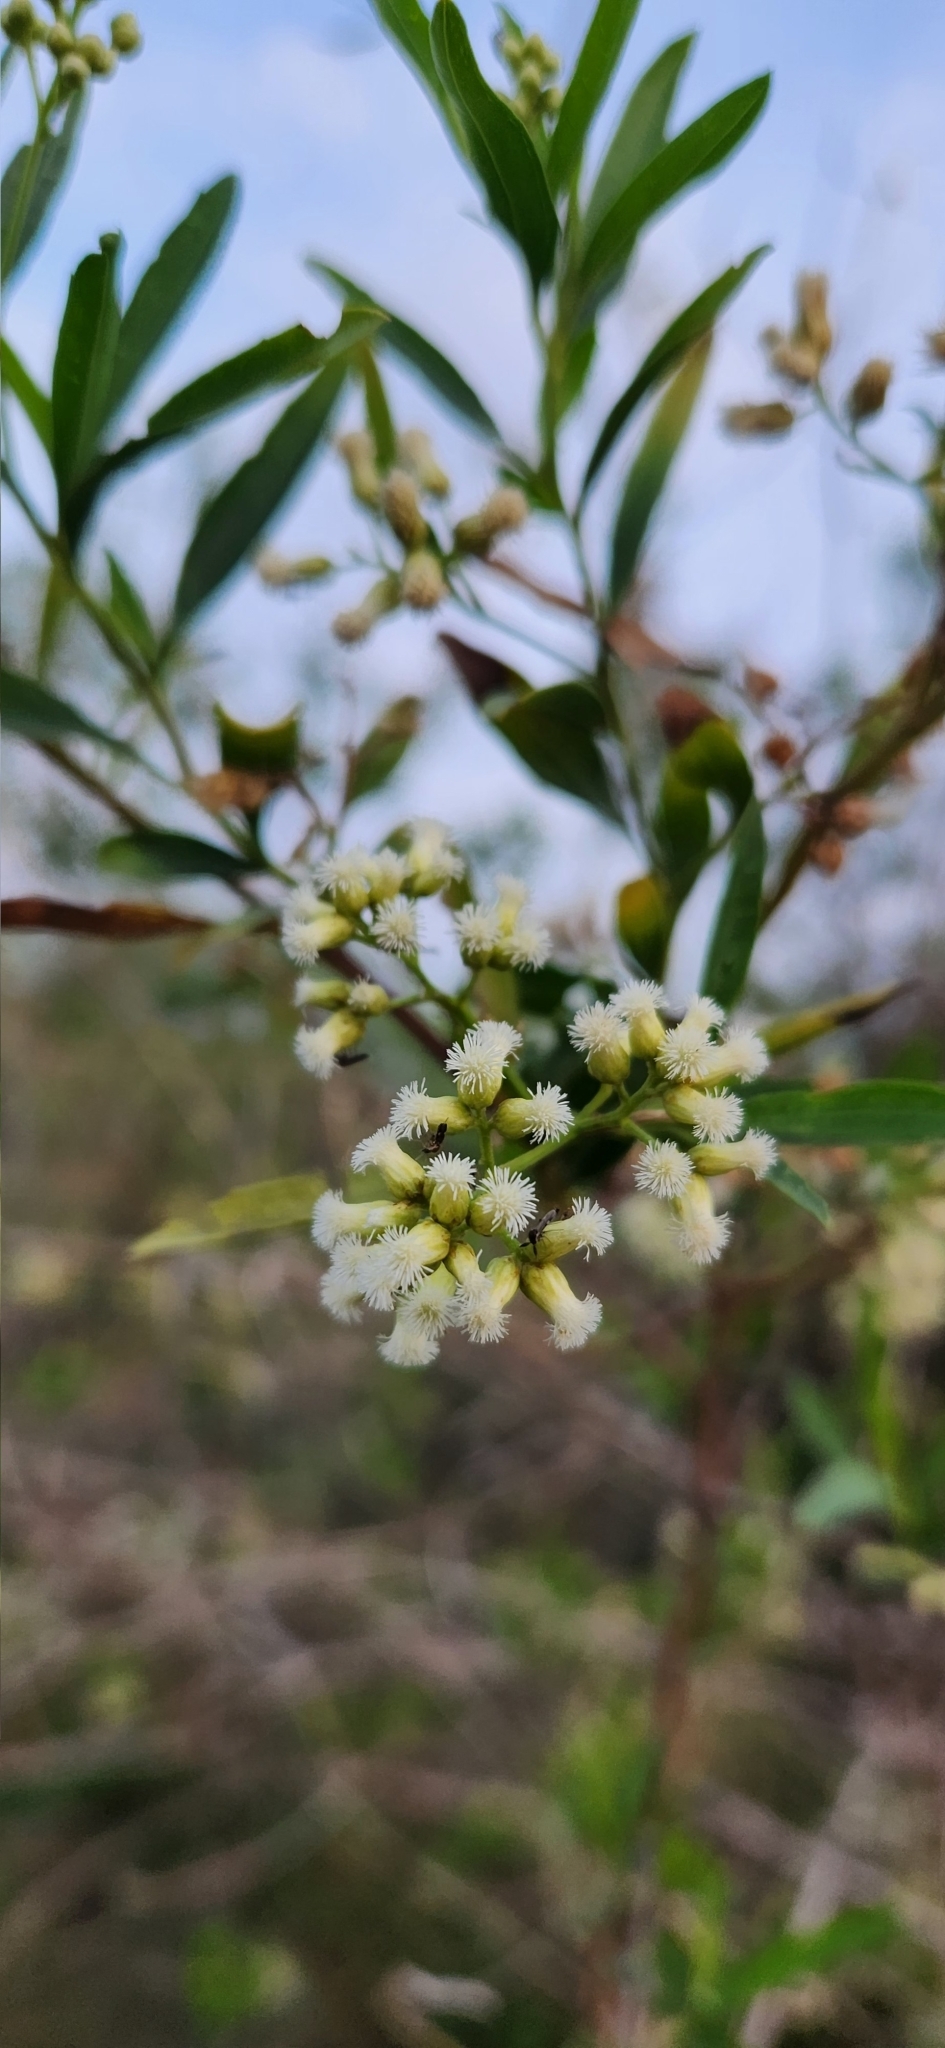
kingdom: Plantae
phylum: Tracheophyta
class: Magnoliopsida
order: Asterales
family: Asteraceae
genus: Baccharis
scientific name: Baccharis salicifolia
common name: Sticky baccharis
